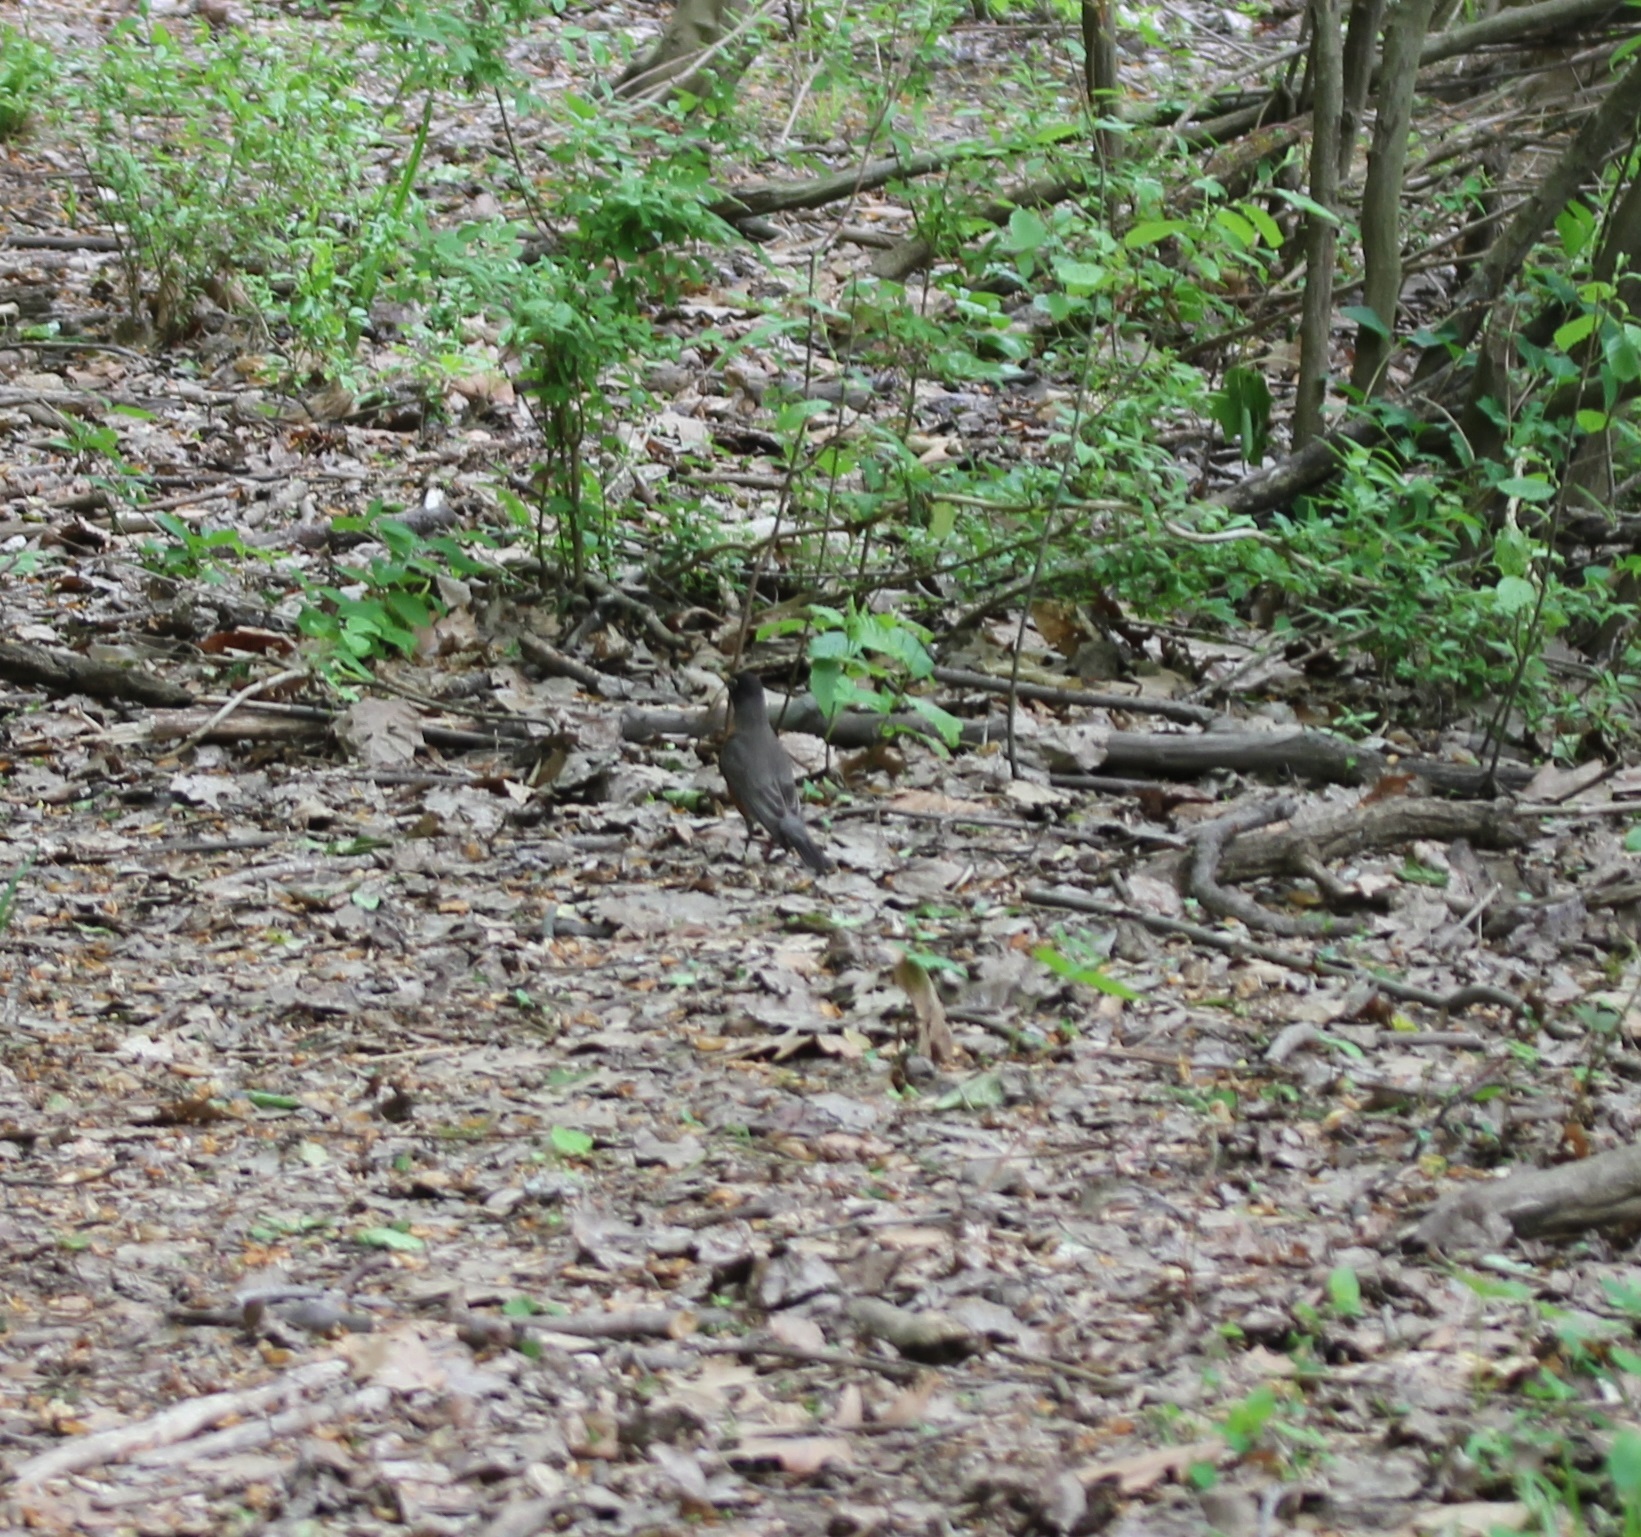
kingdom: Animalia
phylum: Chordata
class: Aves
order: Passeriformes
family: Turdidae
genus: Turdus
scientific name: Turdus migratorius
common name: American robin
